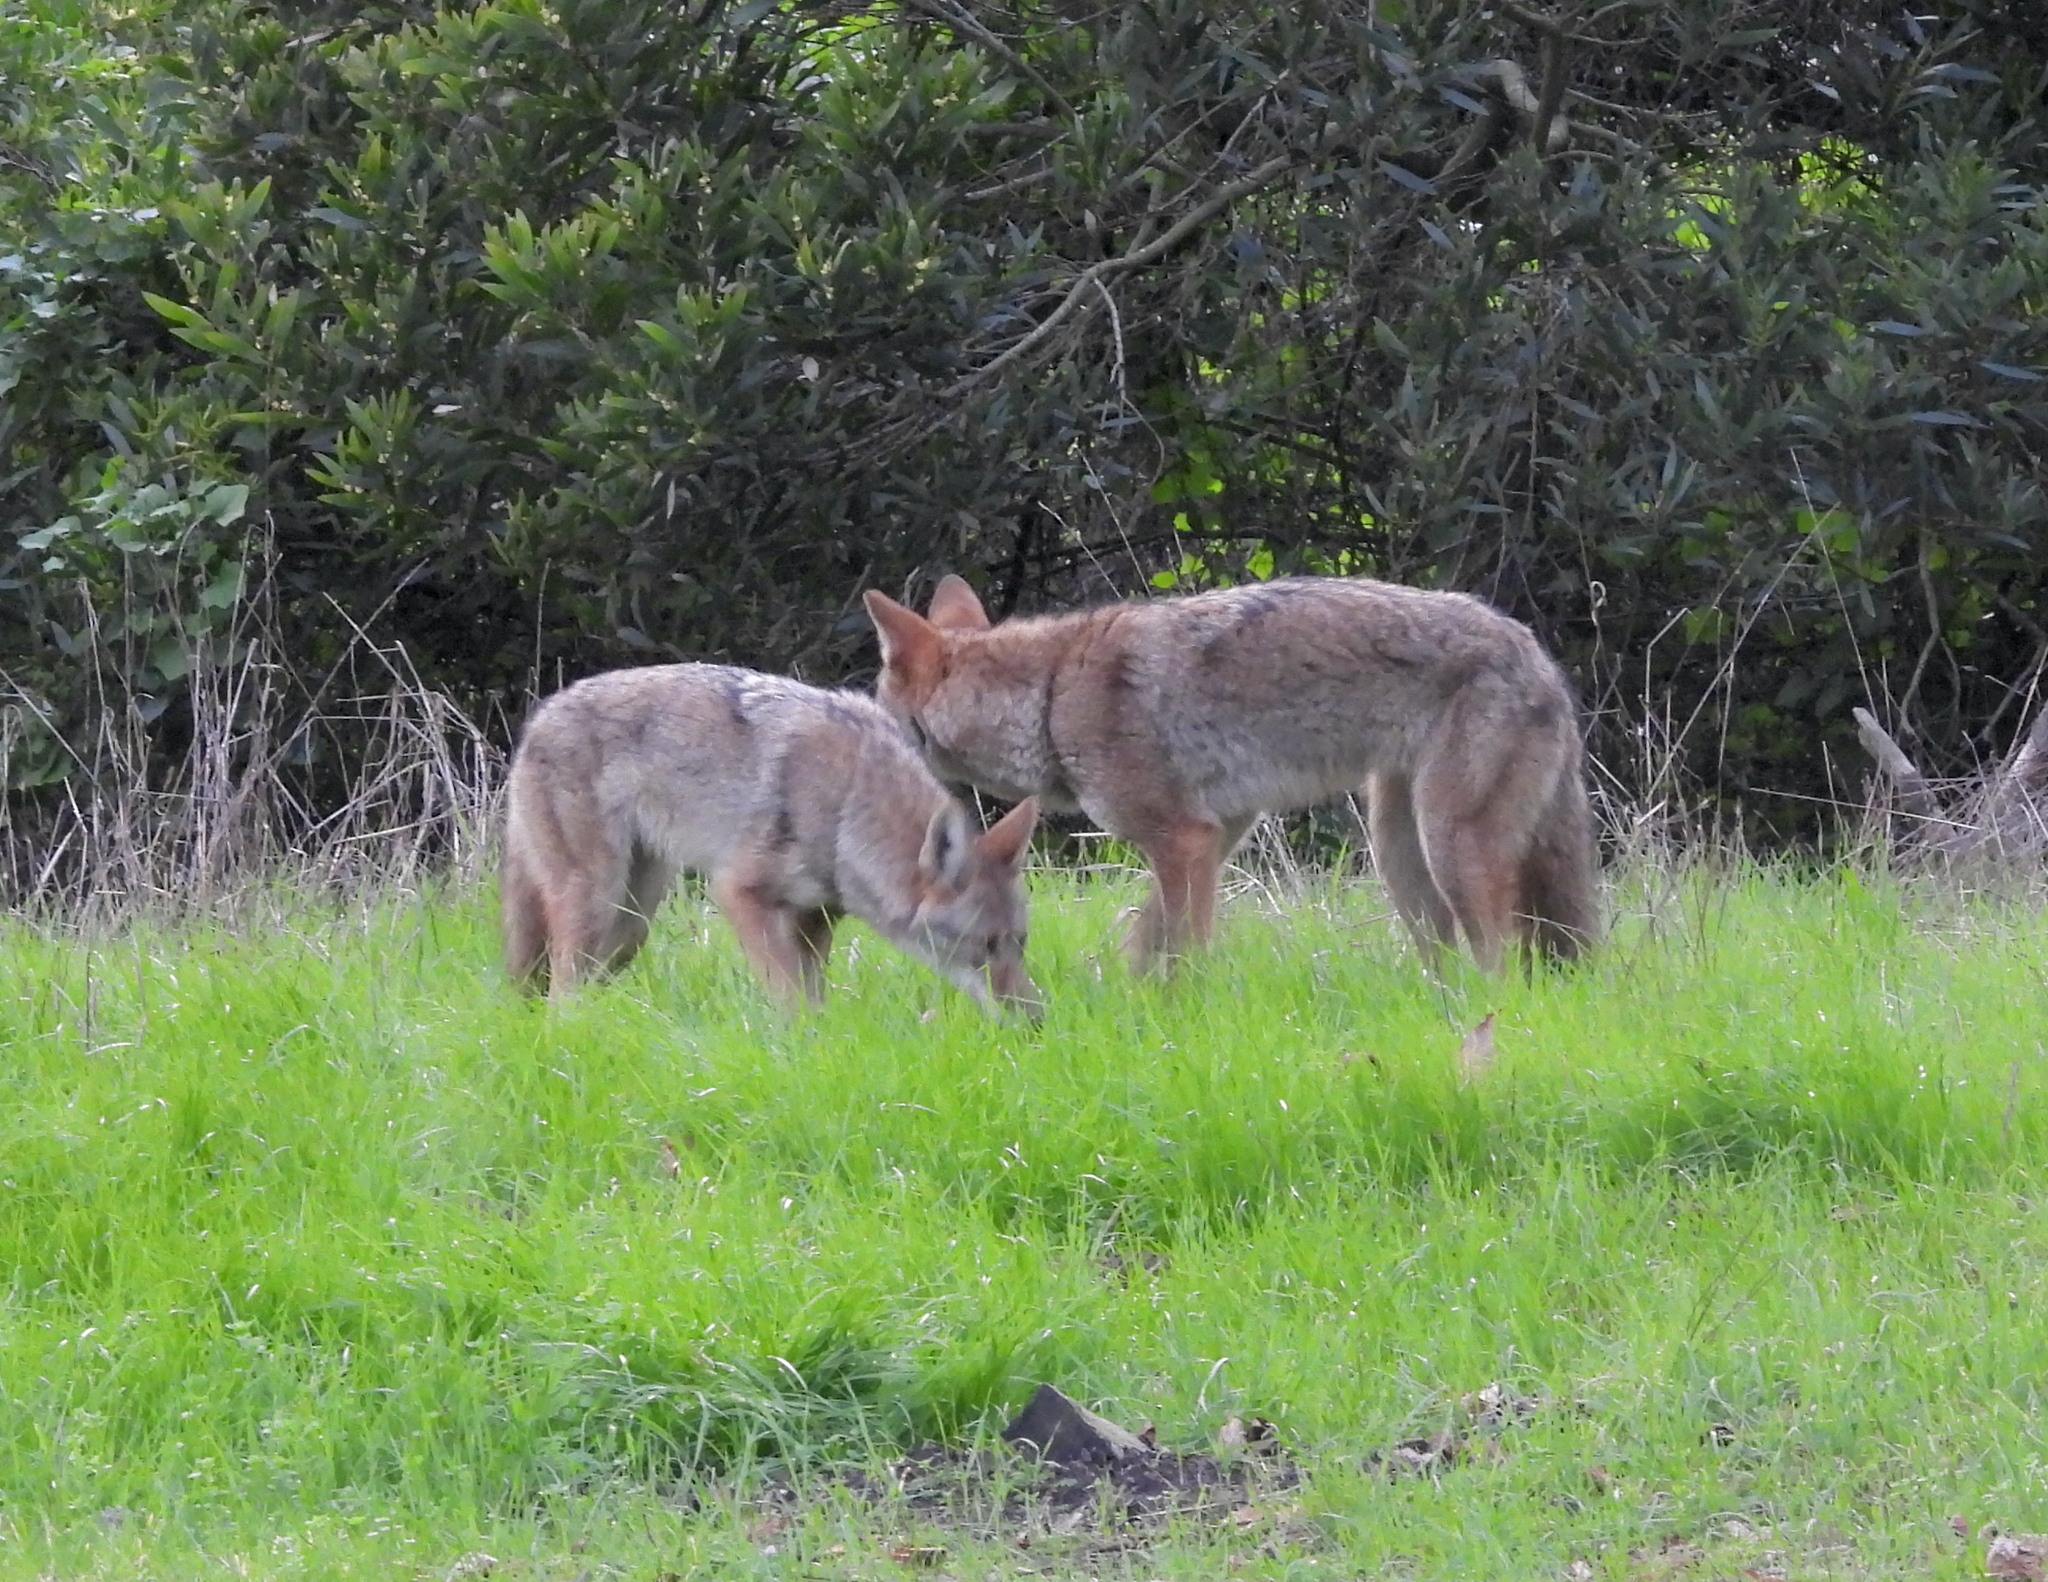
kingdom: Animalia
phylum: Chordata
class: Mammalia
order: Carnivora
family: Canidae
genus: Canis
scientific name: Canis latrans
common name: Coyote
